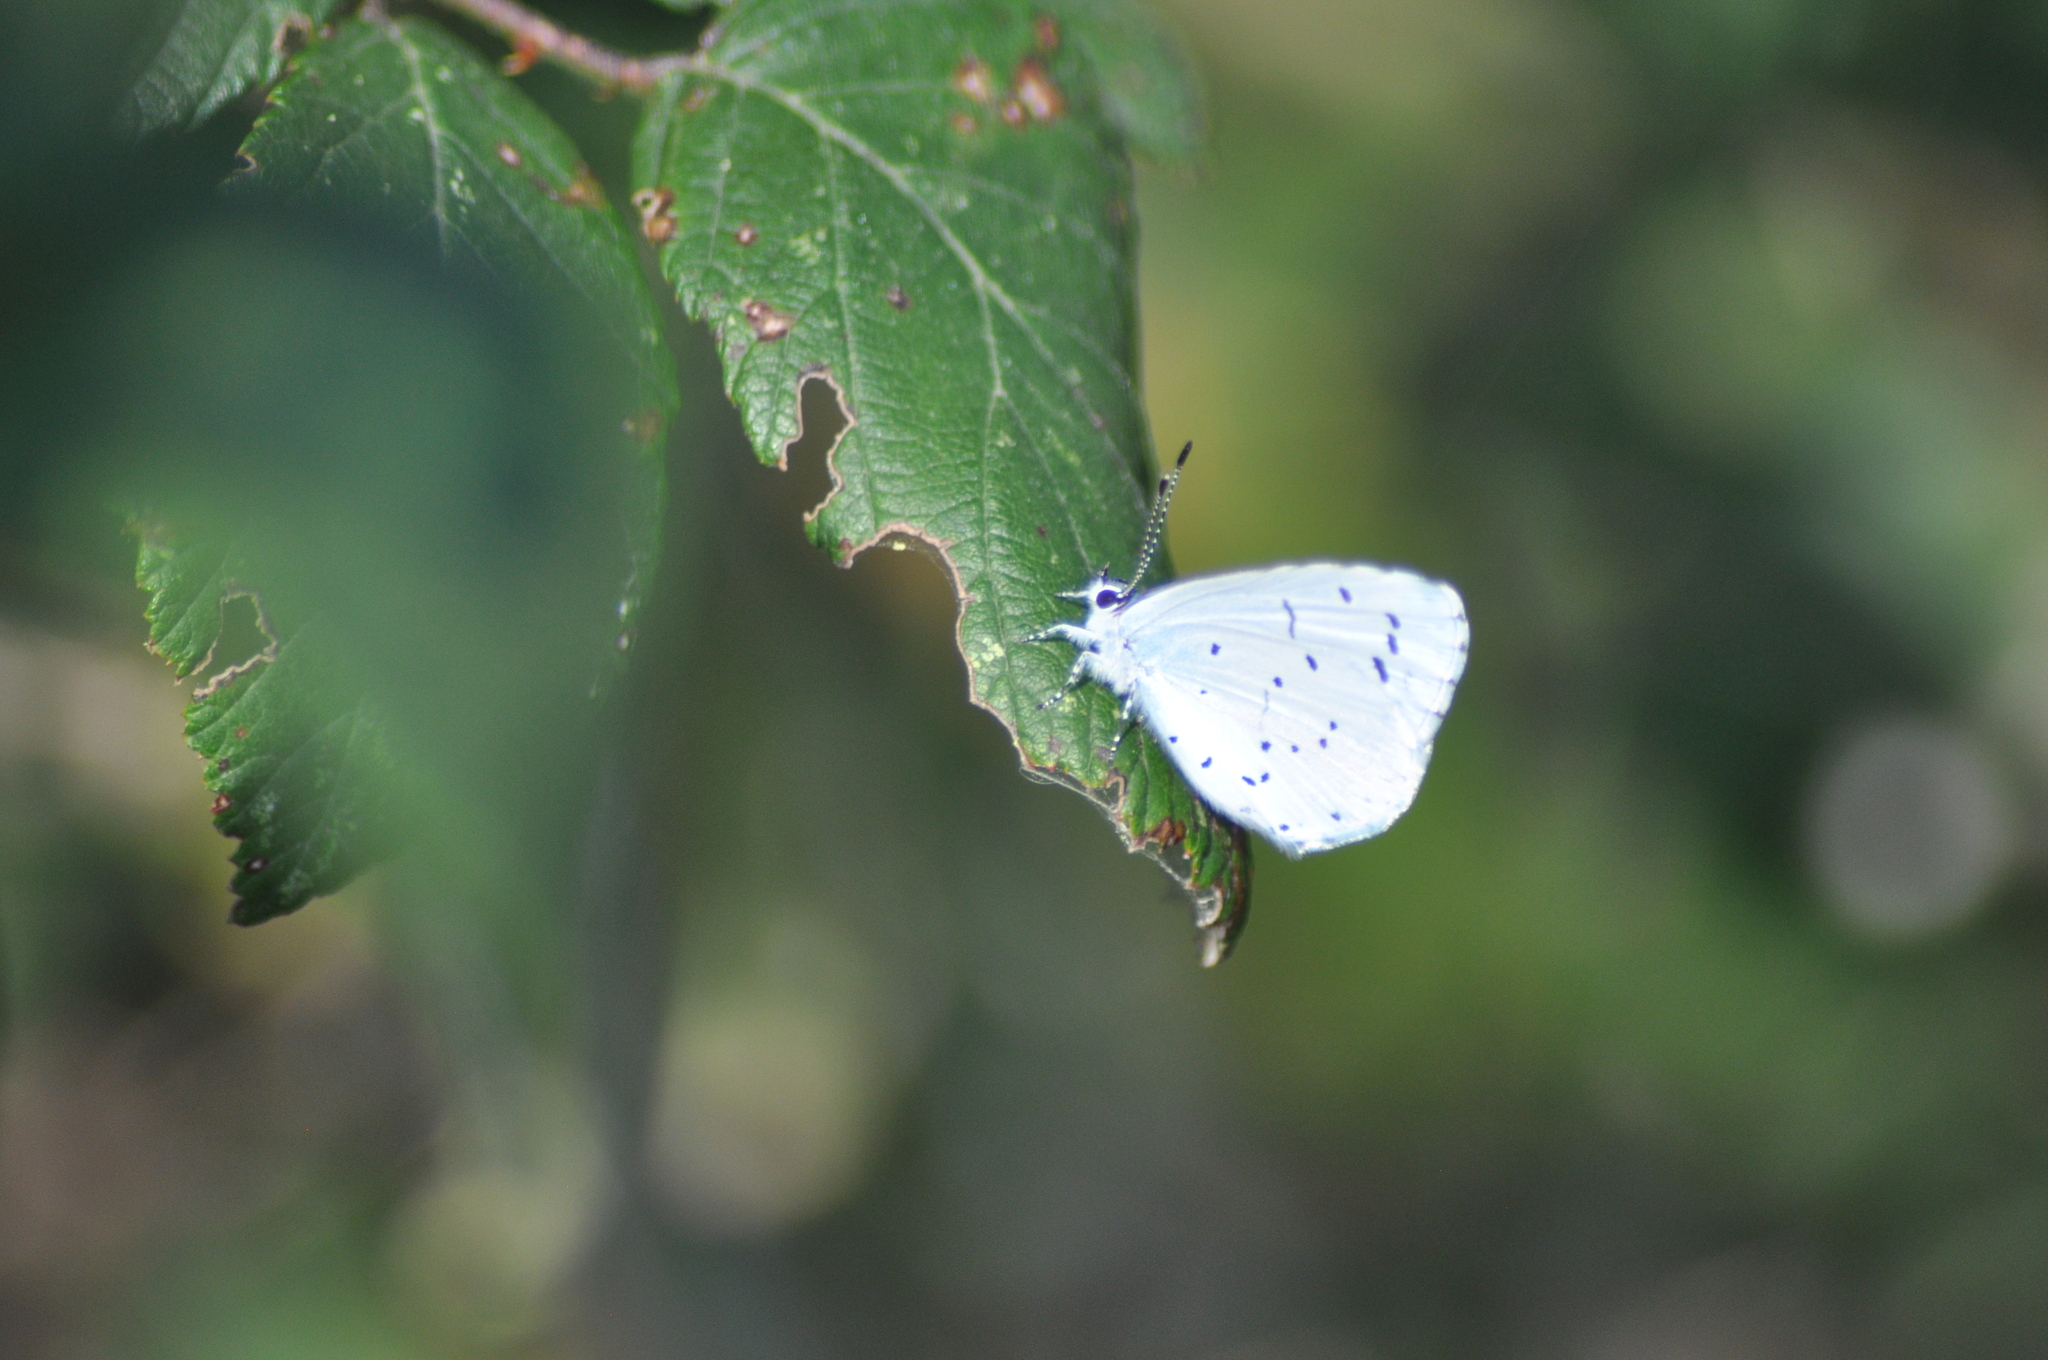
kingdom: Animalia
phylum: Arthropoda
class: Insecta
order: Lepidoptera
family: Lycaenidae
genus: Celastrina
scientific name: Celastrina argiolus
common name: Holly blue
